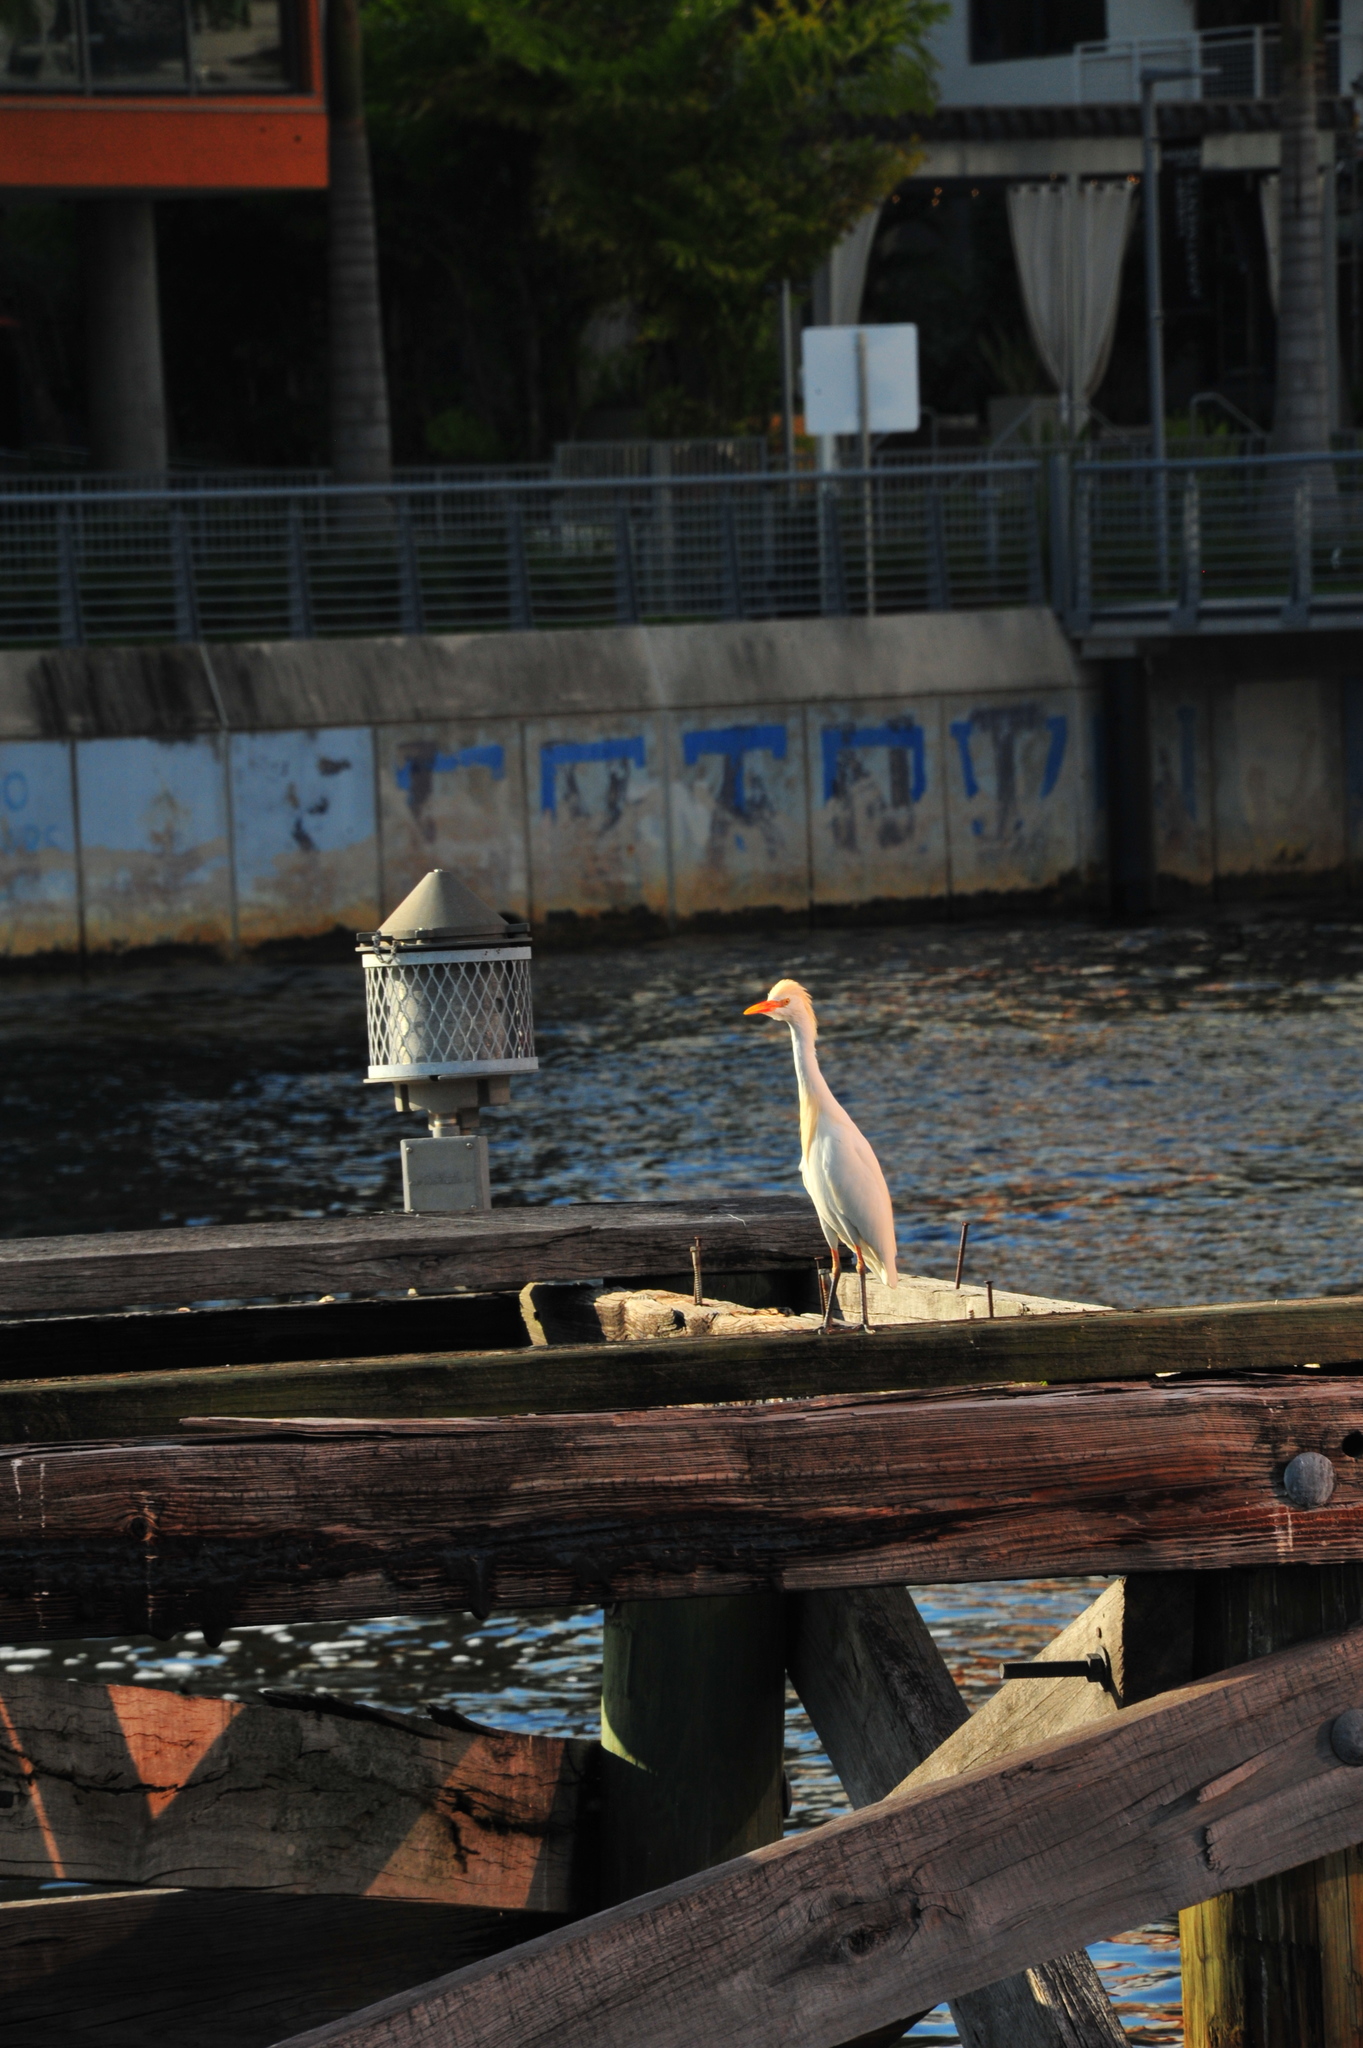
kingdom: Animalia
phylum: Chordata
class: Aves
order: Pelecaniformes
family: Ardeidae
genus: Bubulcus
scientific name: Bubulcus ibis
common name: Cattle egret
